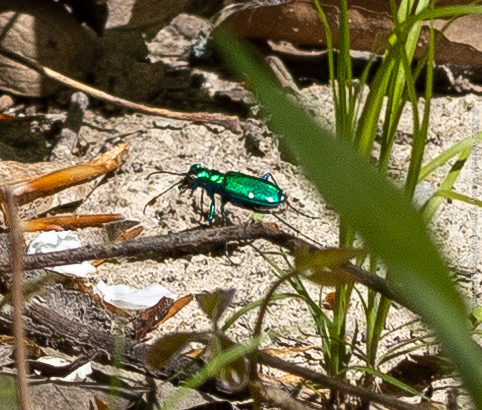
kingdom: Animalia
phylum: Arthropoda
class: Insecta
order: Coleoptera
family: Carabidae
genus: Cicindela
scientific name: Cicindela sexguttata
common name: Six-spotted tiger beetle
